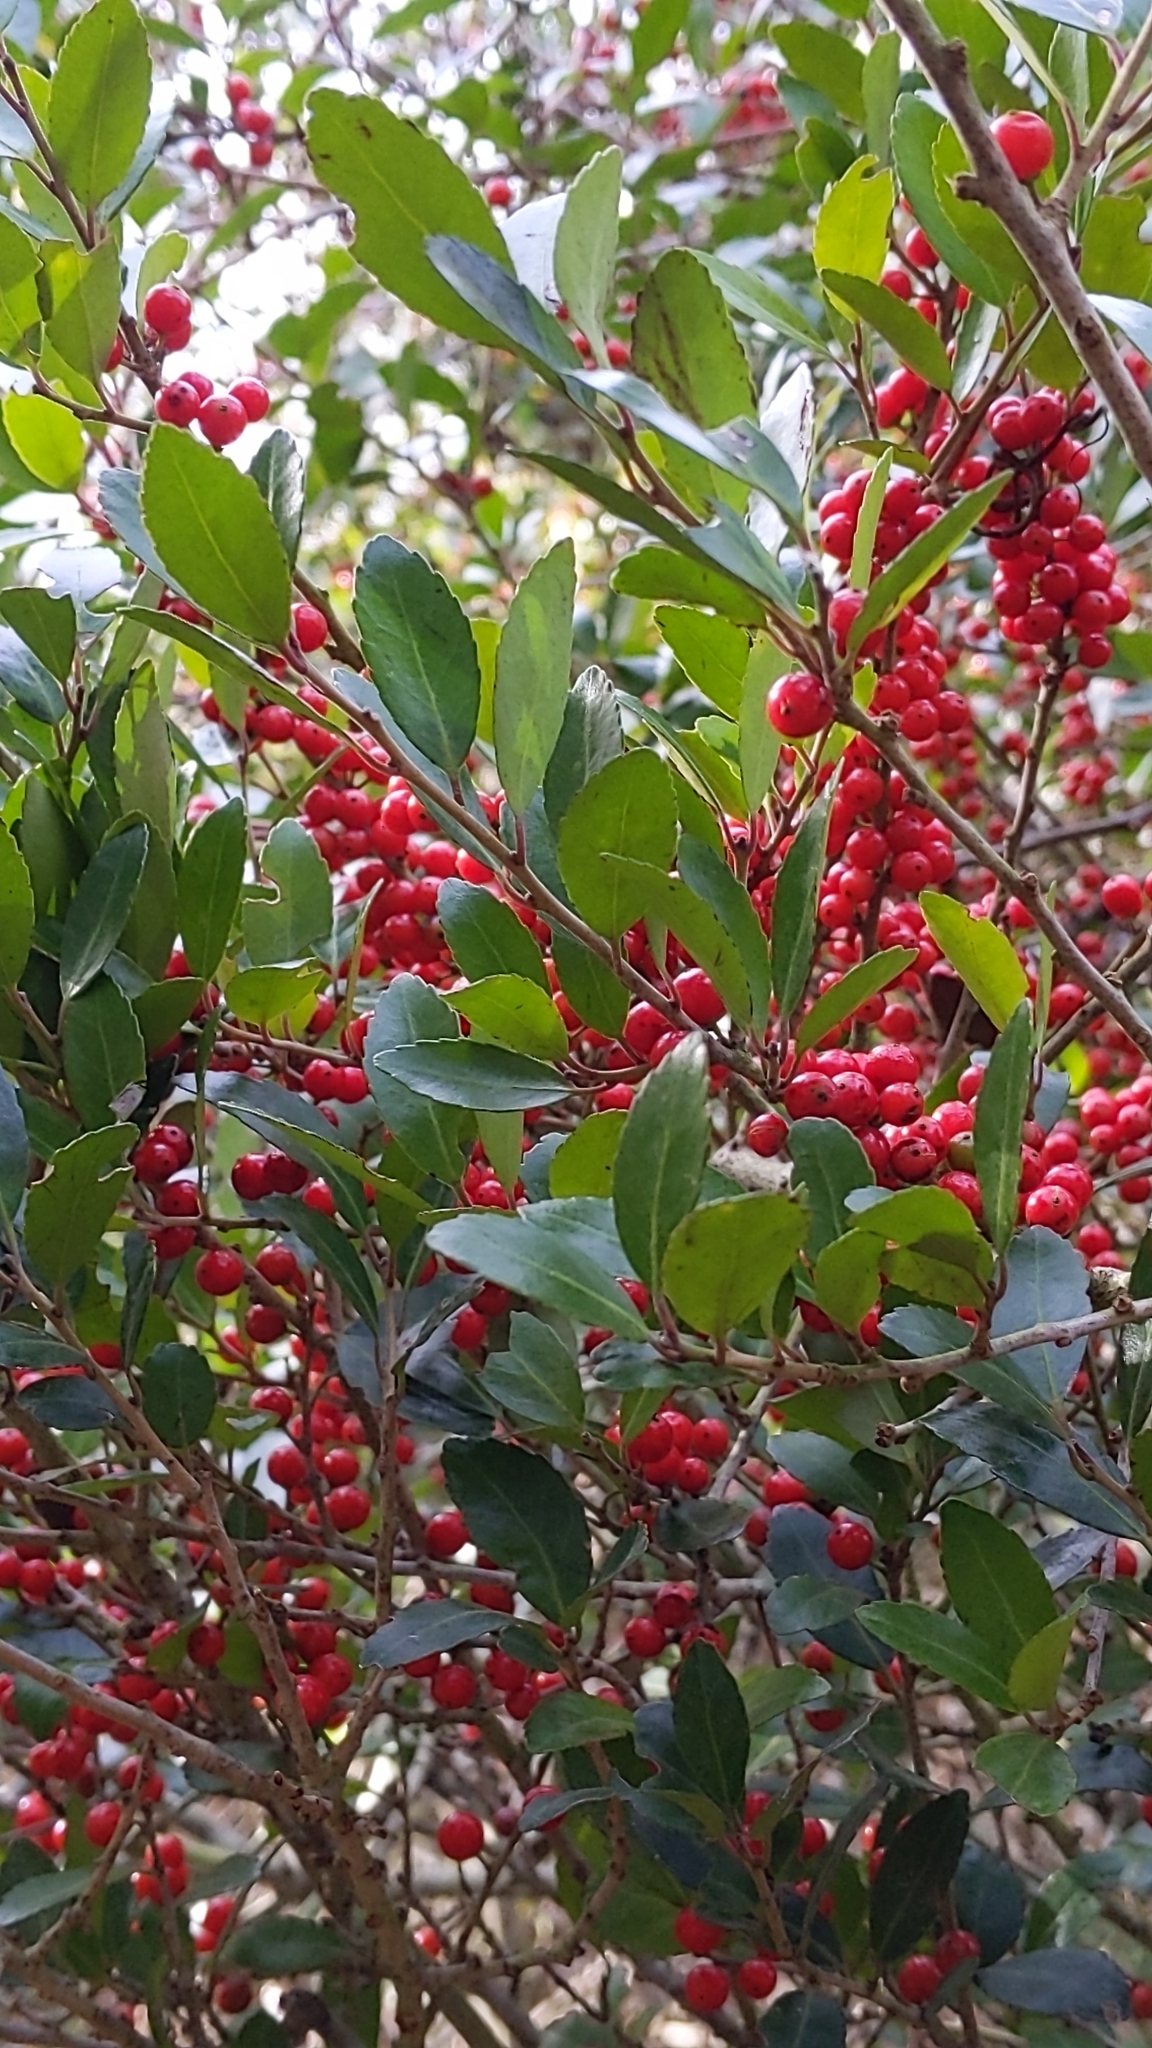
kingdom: Plantae
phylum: Tracheophyta
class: Magnoliopsida
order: Aquifoliales
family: Aquifoliaceae
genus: Ilex
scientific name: Ilex vomitoria
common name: Yaupon holly
